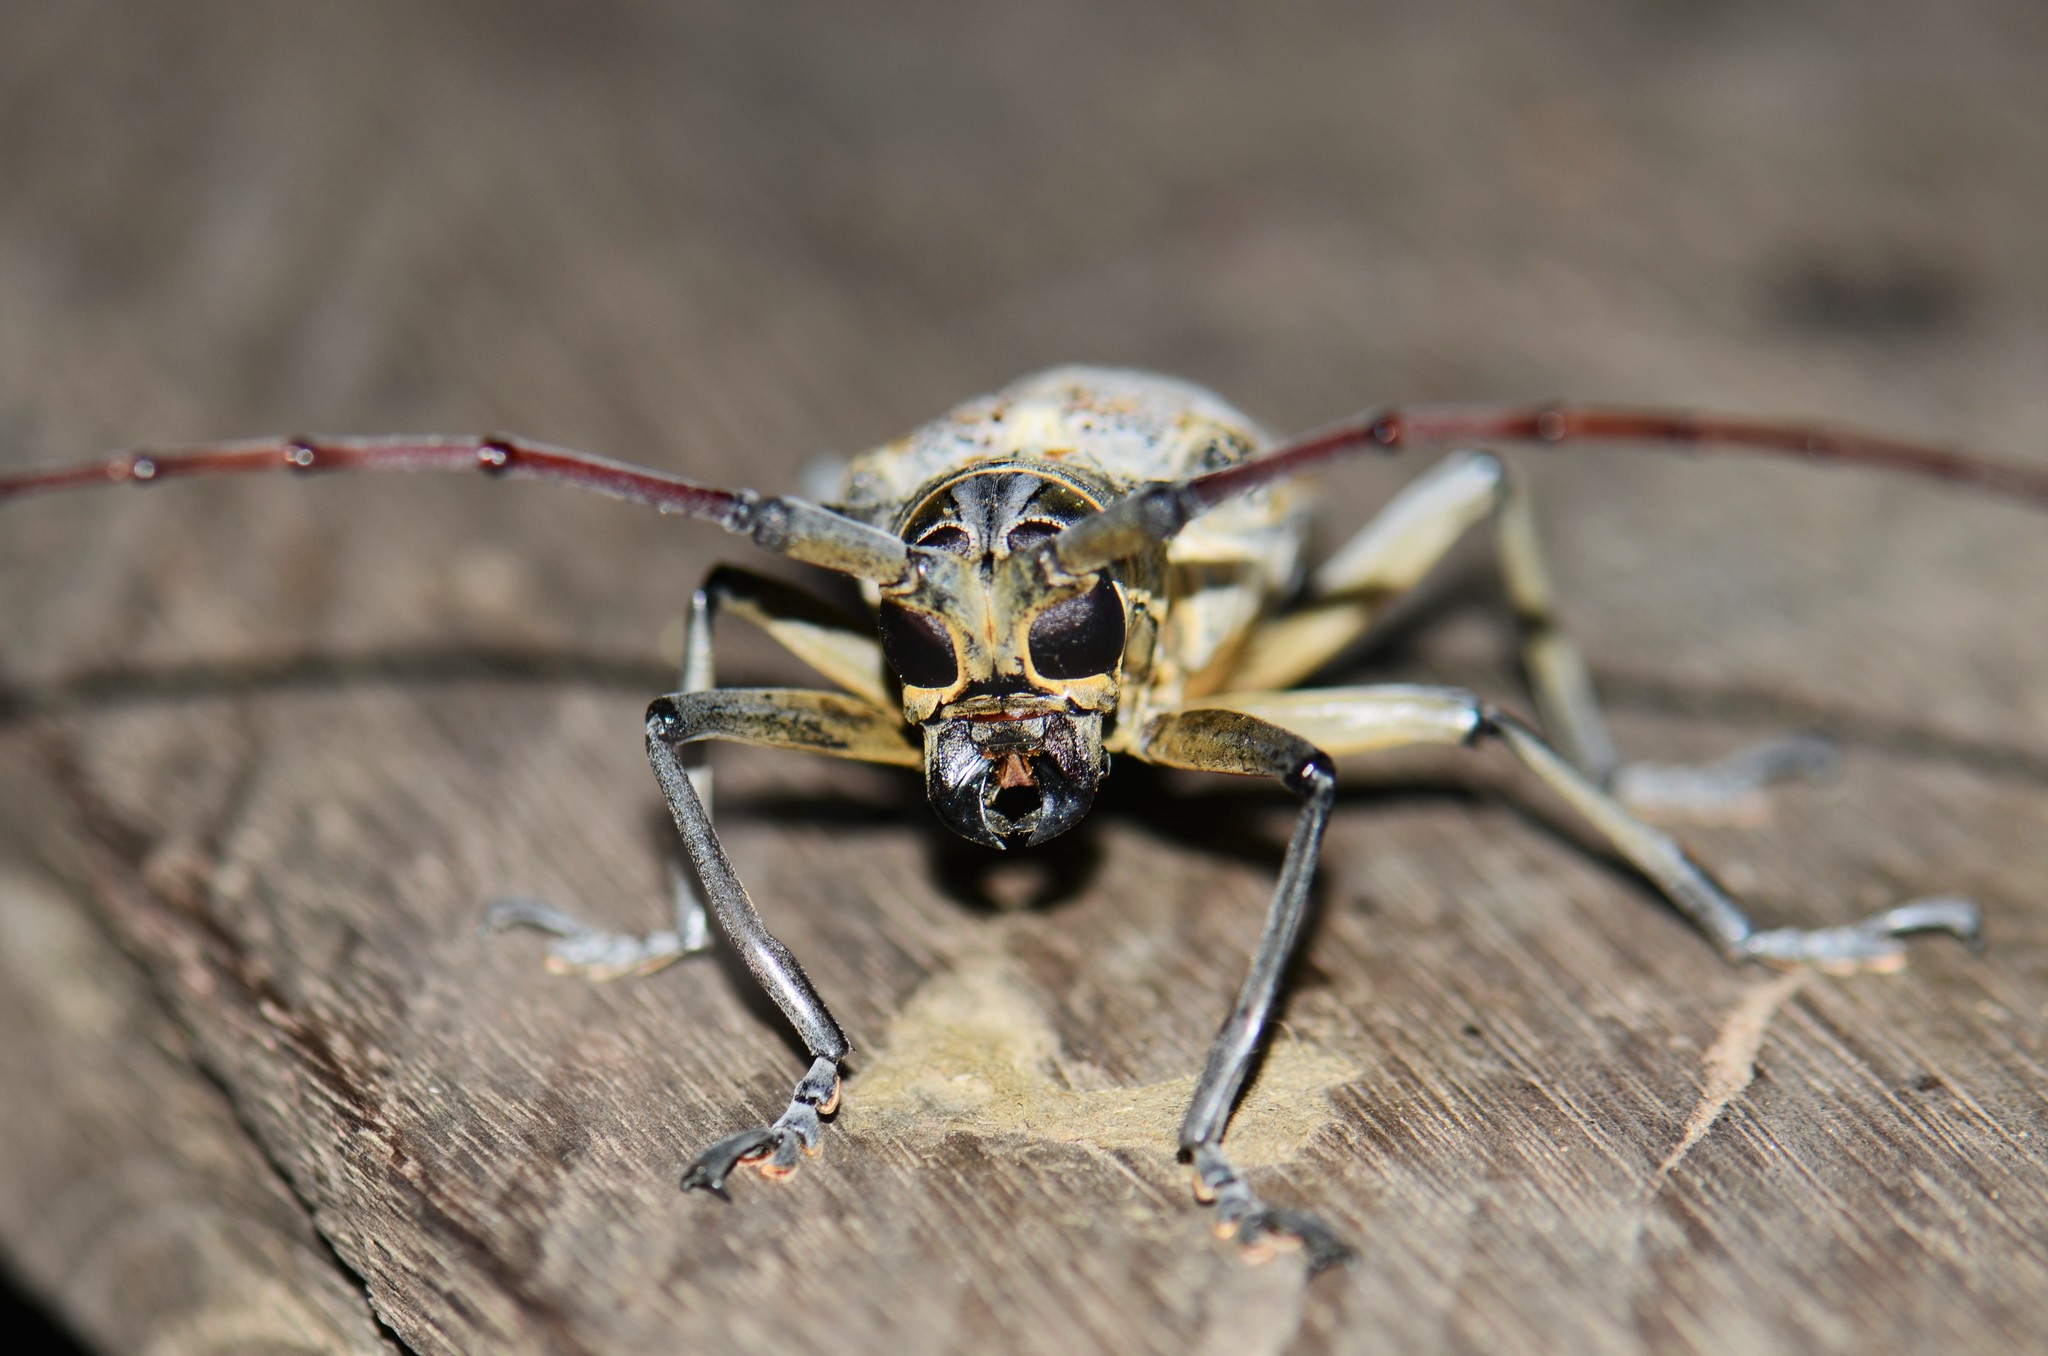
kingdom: Animalia
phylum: Arthropoda
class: Insecta
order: Coleoptera
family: Cerambycidae
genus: Batocera
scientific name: Batocera maculata
